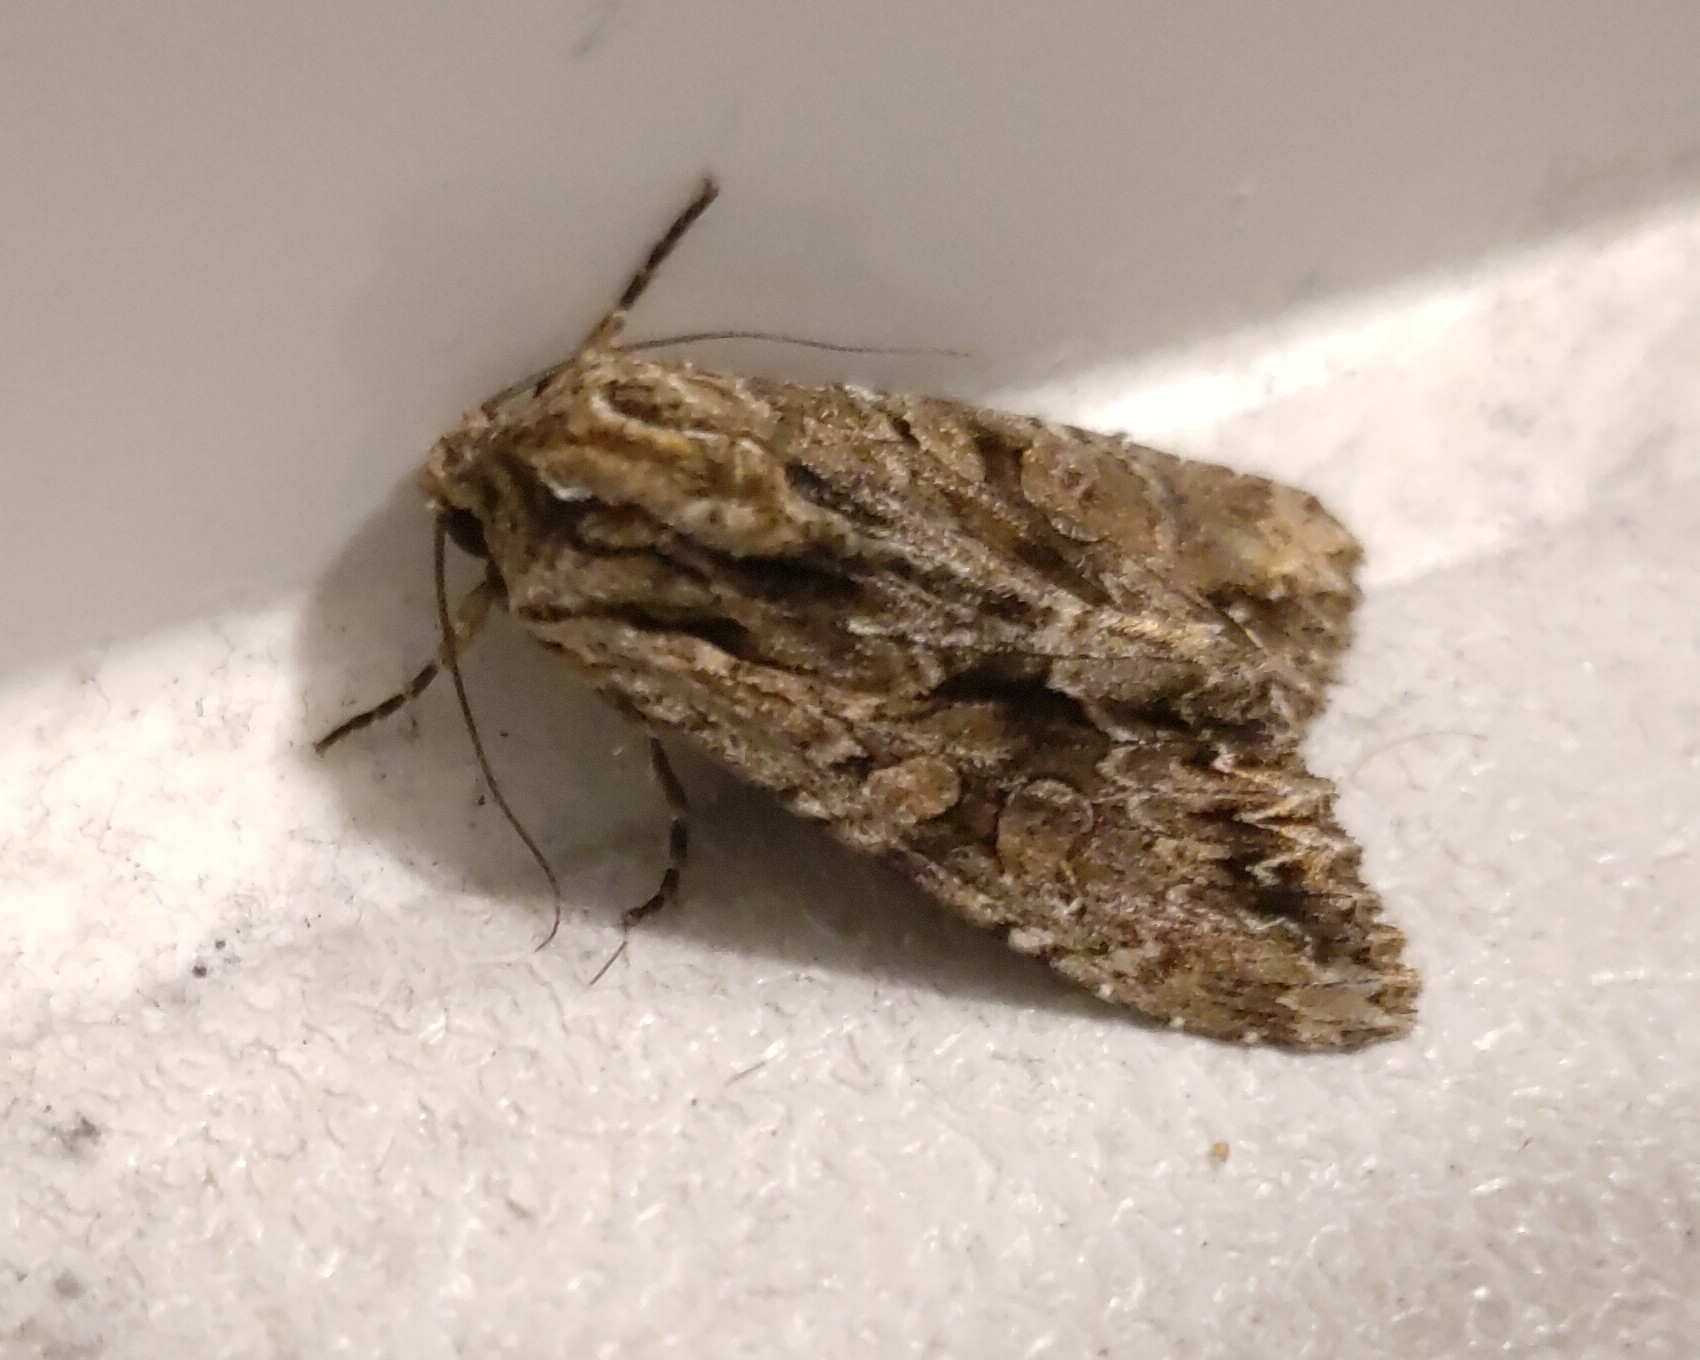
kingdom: Animalia
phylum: Arthropoda
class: Insecta
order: Lepidoptera
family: Noctuidae
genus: Apamea
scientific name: Apamea monoglypha
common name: Dark arches
